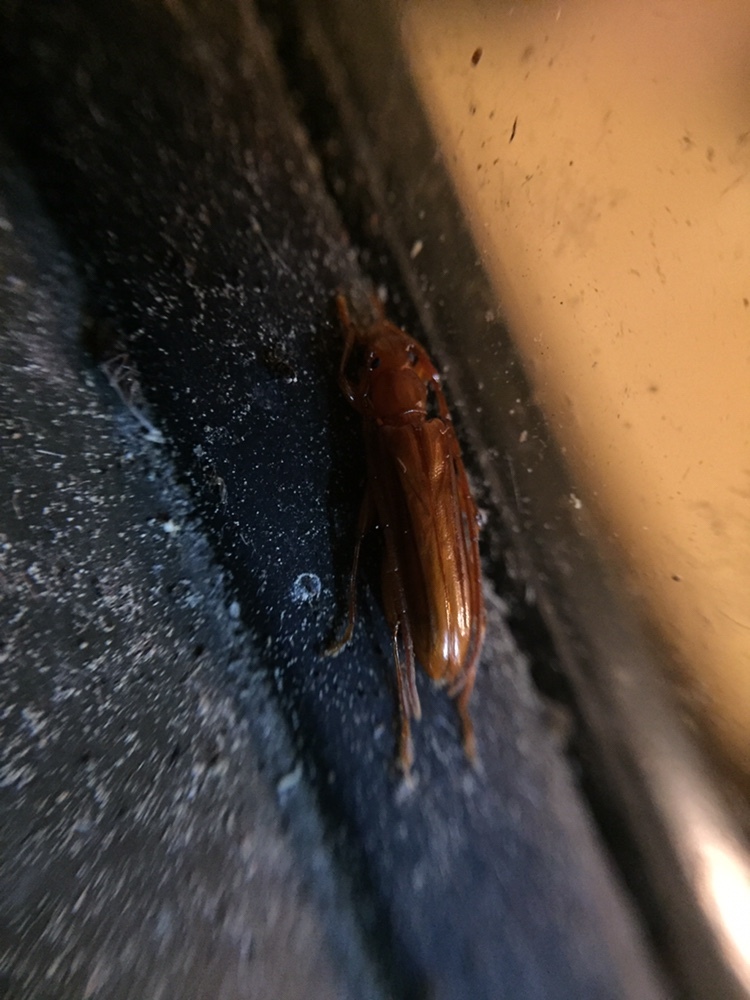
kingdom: Animalia
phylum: Arthropoda
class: Insecta
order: Coleoptera
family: Cerambycidae
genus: Astetholea
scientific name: Astetholea pauper
